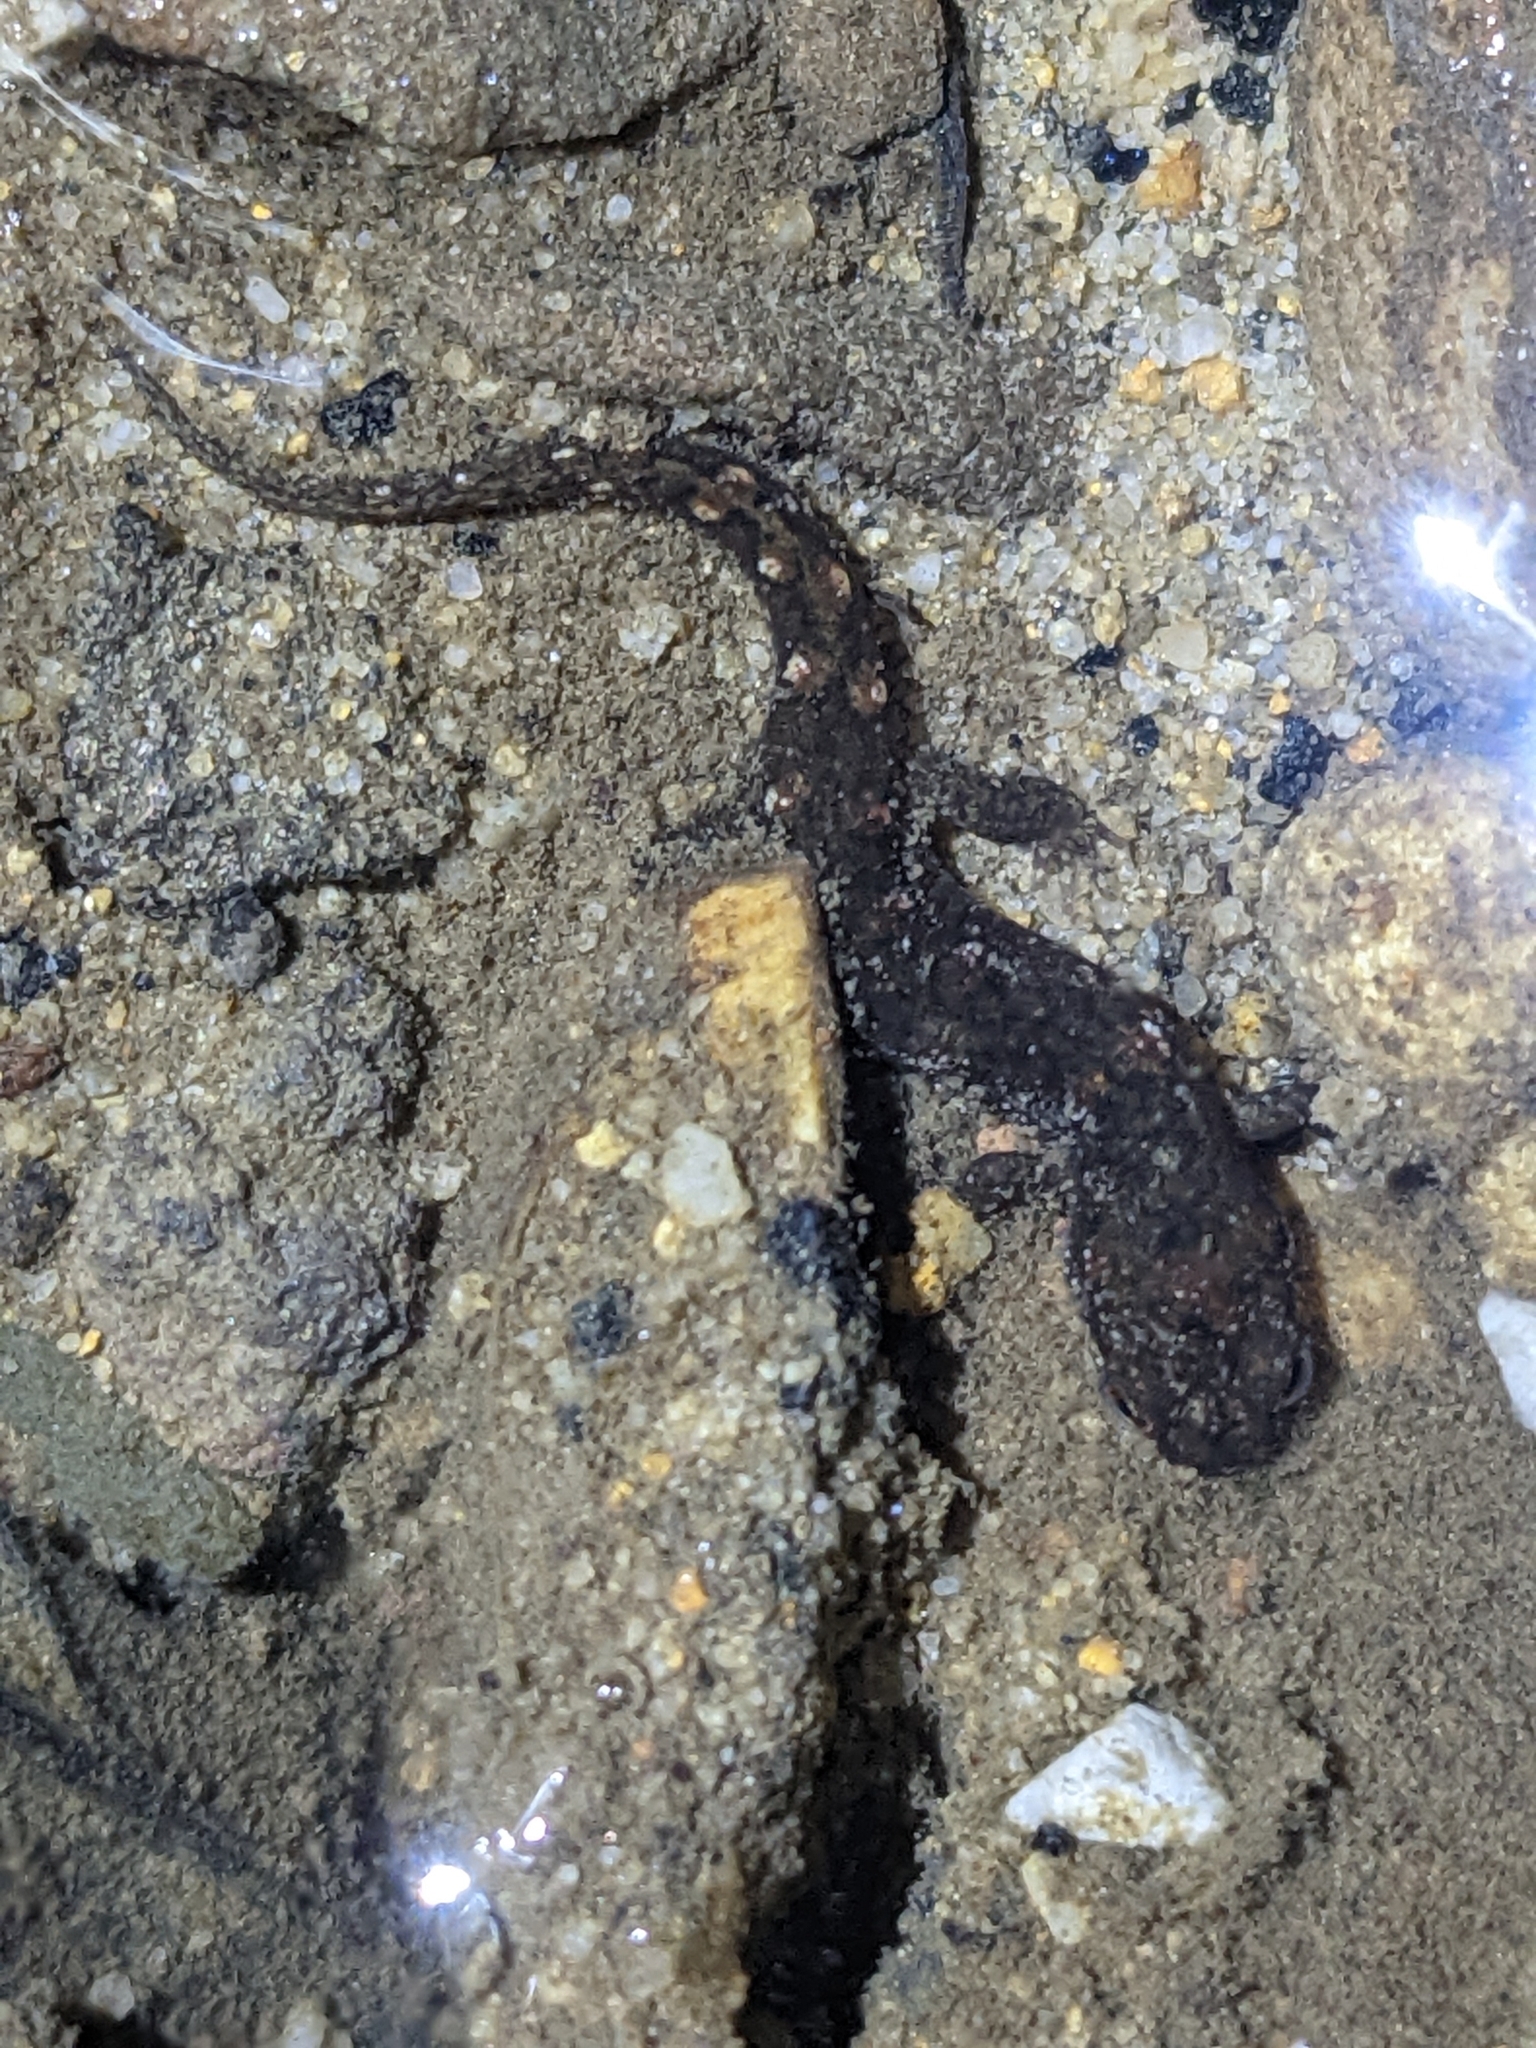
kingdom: Animalia
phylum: Chordata
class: Amphibia
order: Caudata
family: Plethodontidae
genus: Desmognathus
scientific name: Desmognathus monticola
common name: Seal salamander
